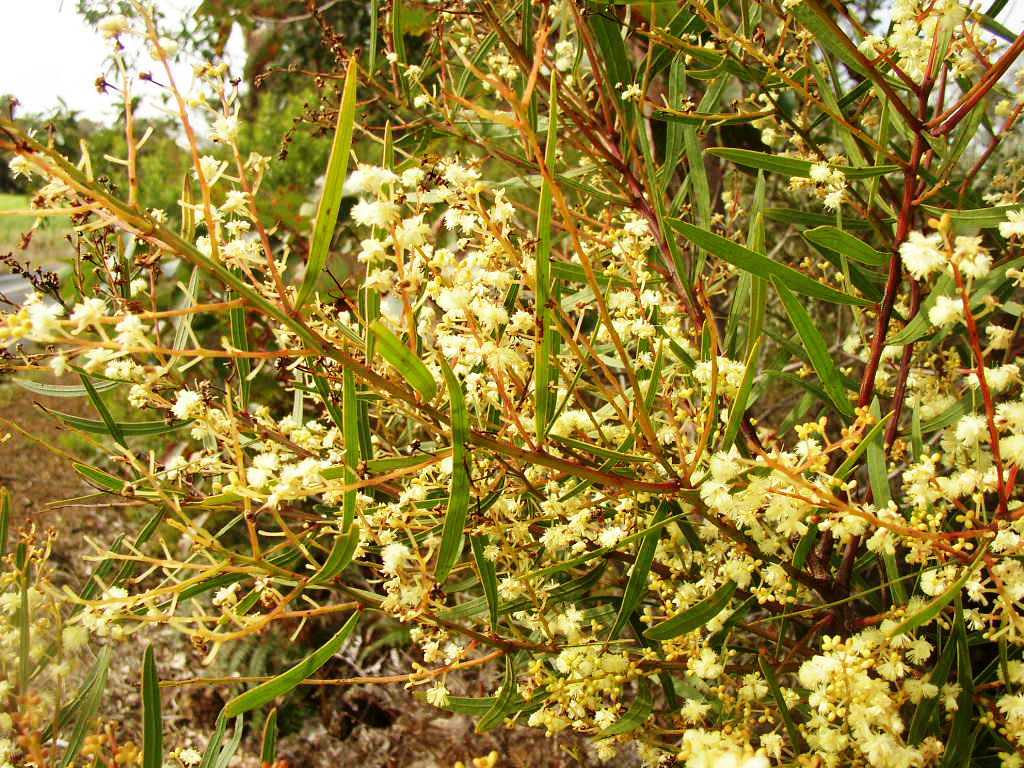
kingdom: Plantae
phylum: Tracheophyta
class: Magnoliopsida
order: Fabales
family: Fabaceae
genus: Acacia
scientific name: Acacia myrtifolia
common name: Myrtle wattle
